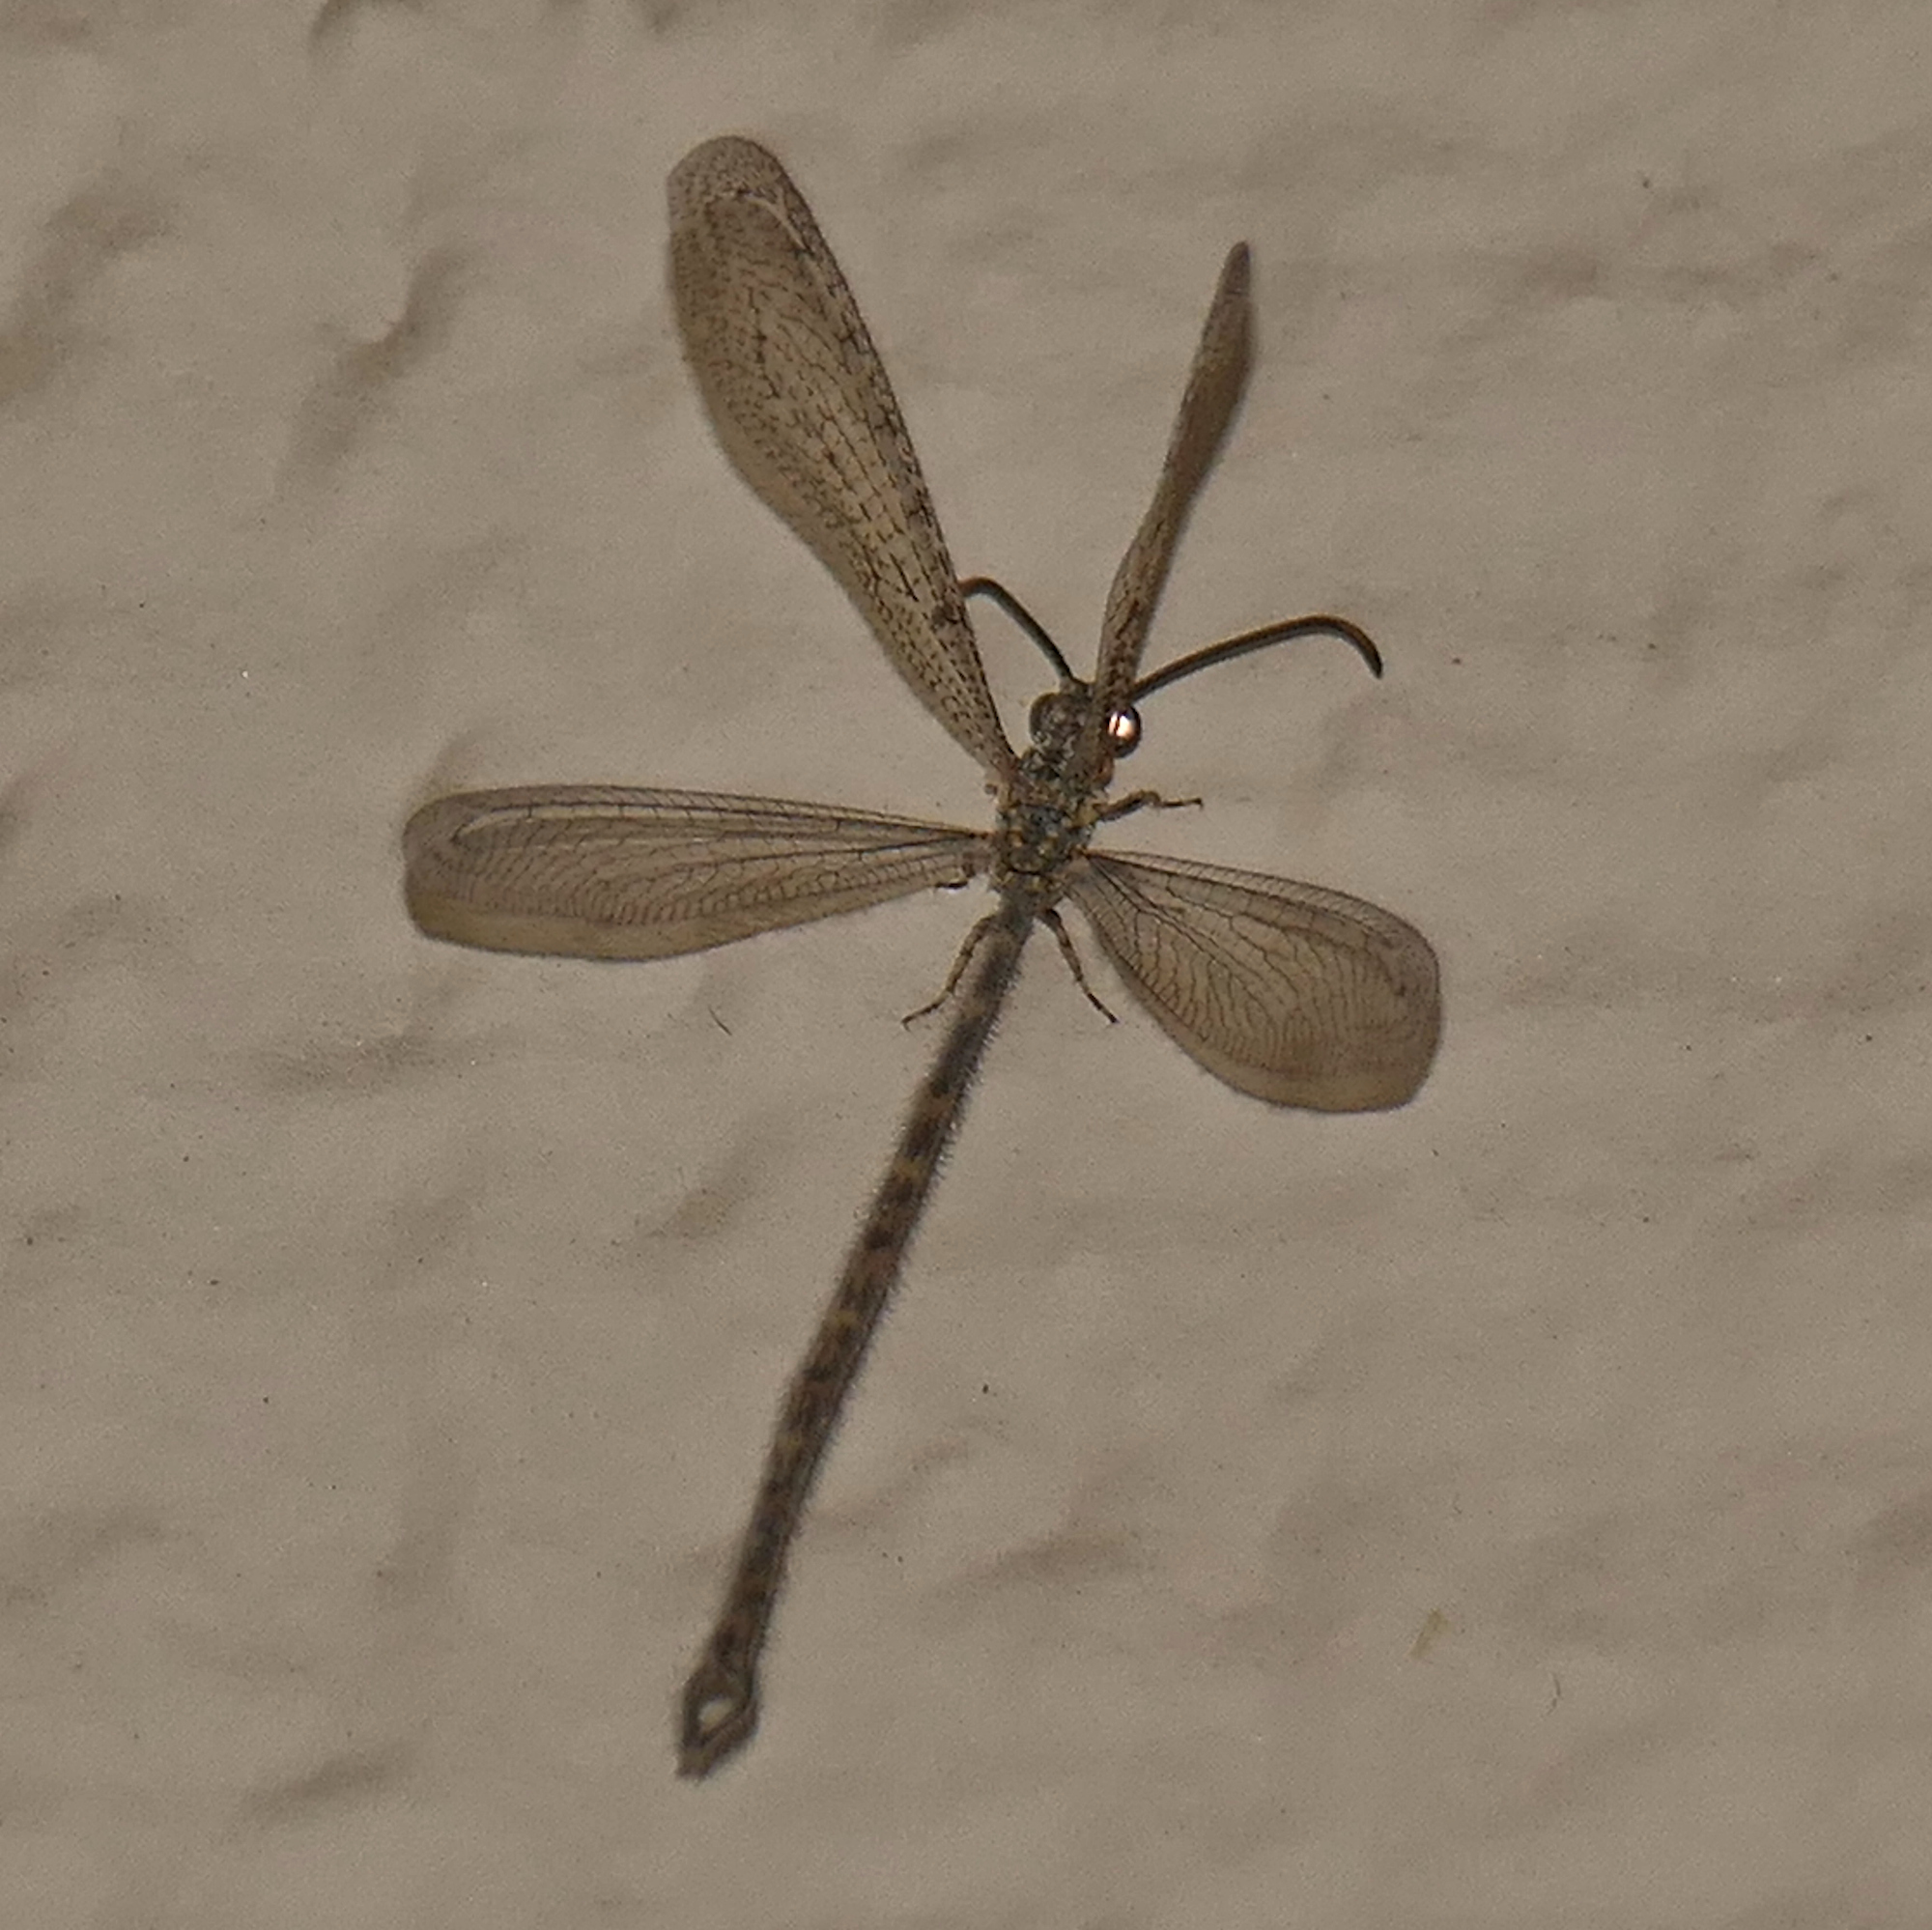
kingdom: Animalia
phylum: Arthropoda
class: Insecta
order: Neuroptera
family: Myrmeleontidae
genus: Atricholeon
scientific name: Atricholeon tuberculatus
